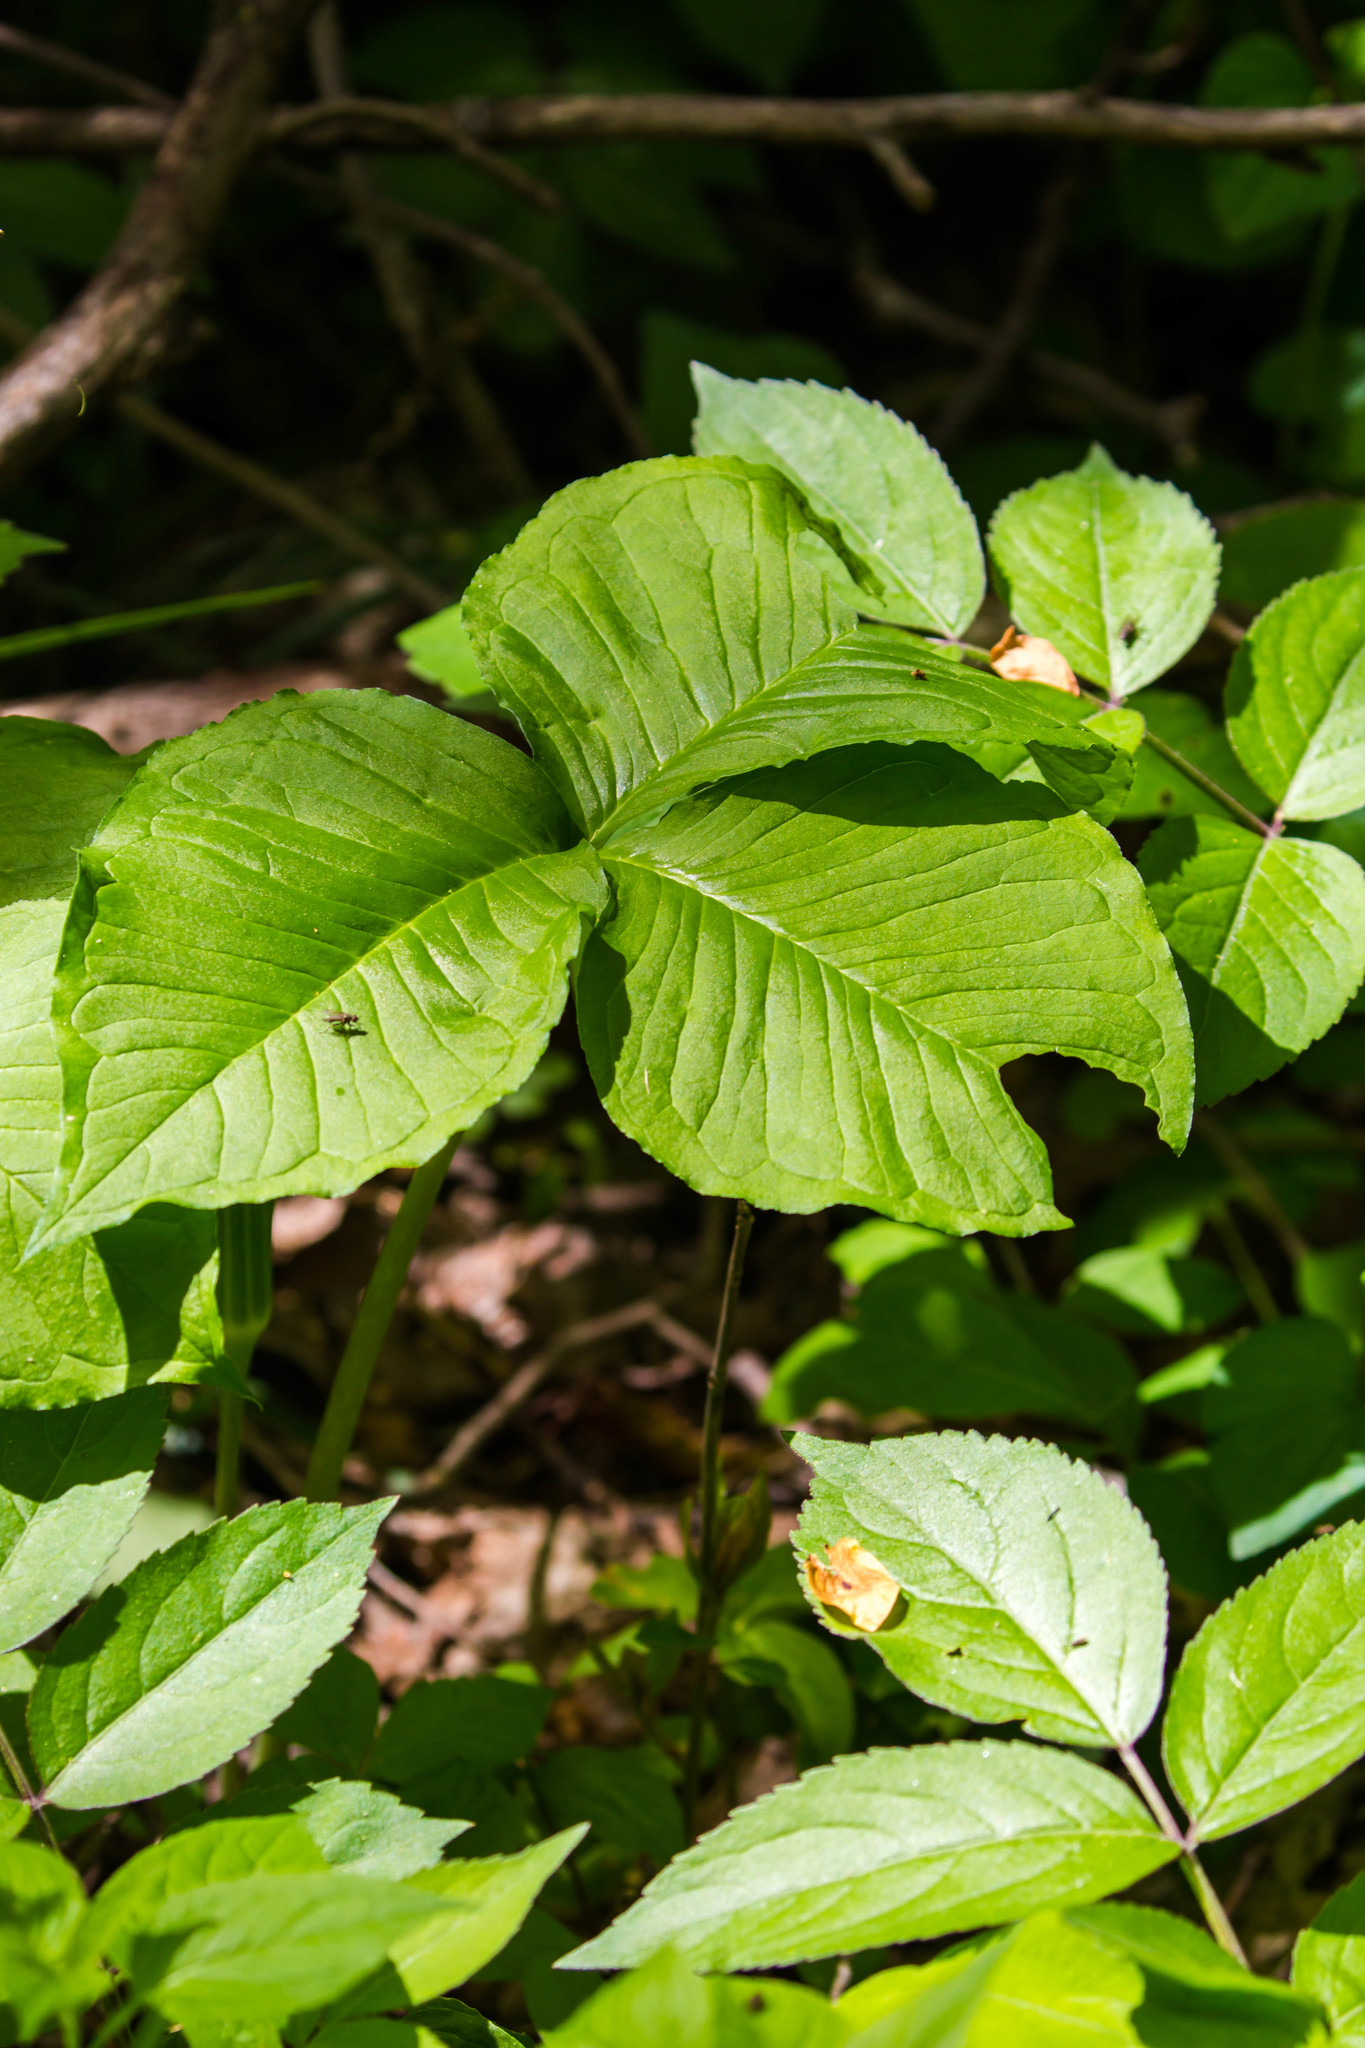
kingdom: Plantae
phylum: Tracheophyta
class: Liliopsida
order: Alismatales
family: Araceae
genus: Arisaema
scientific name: Arisaema triphyllum
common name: Jack-in-the-pulpit
